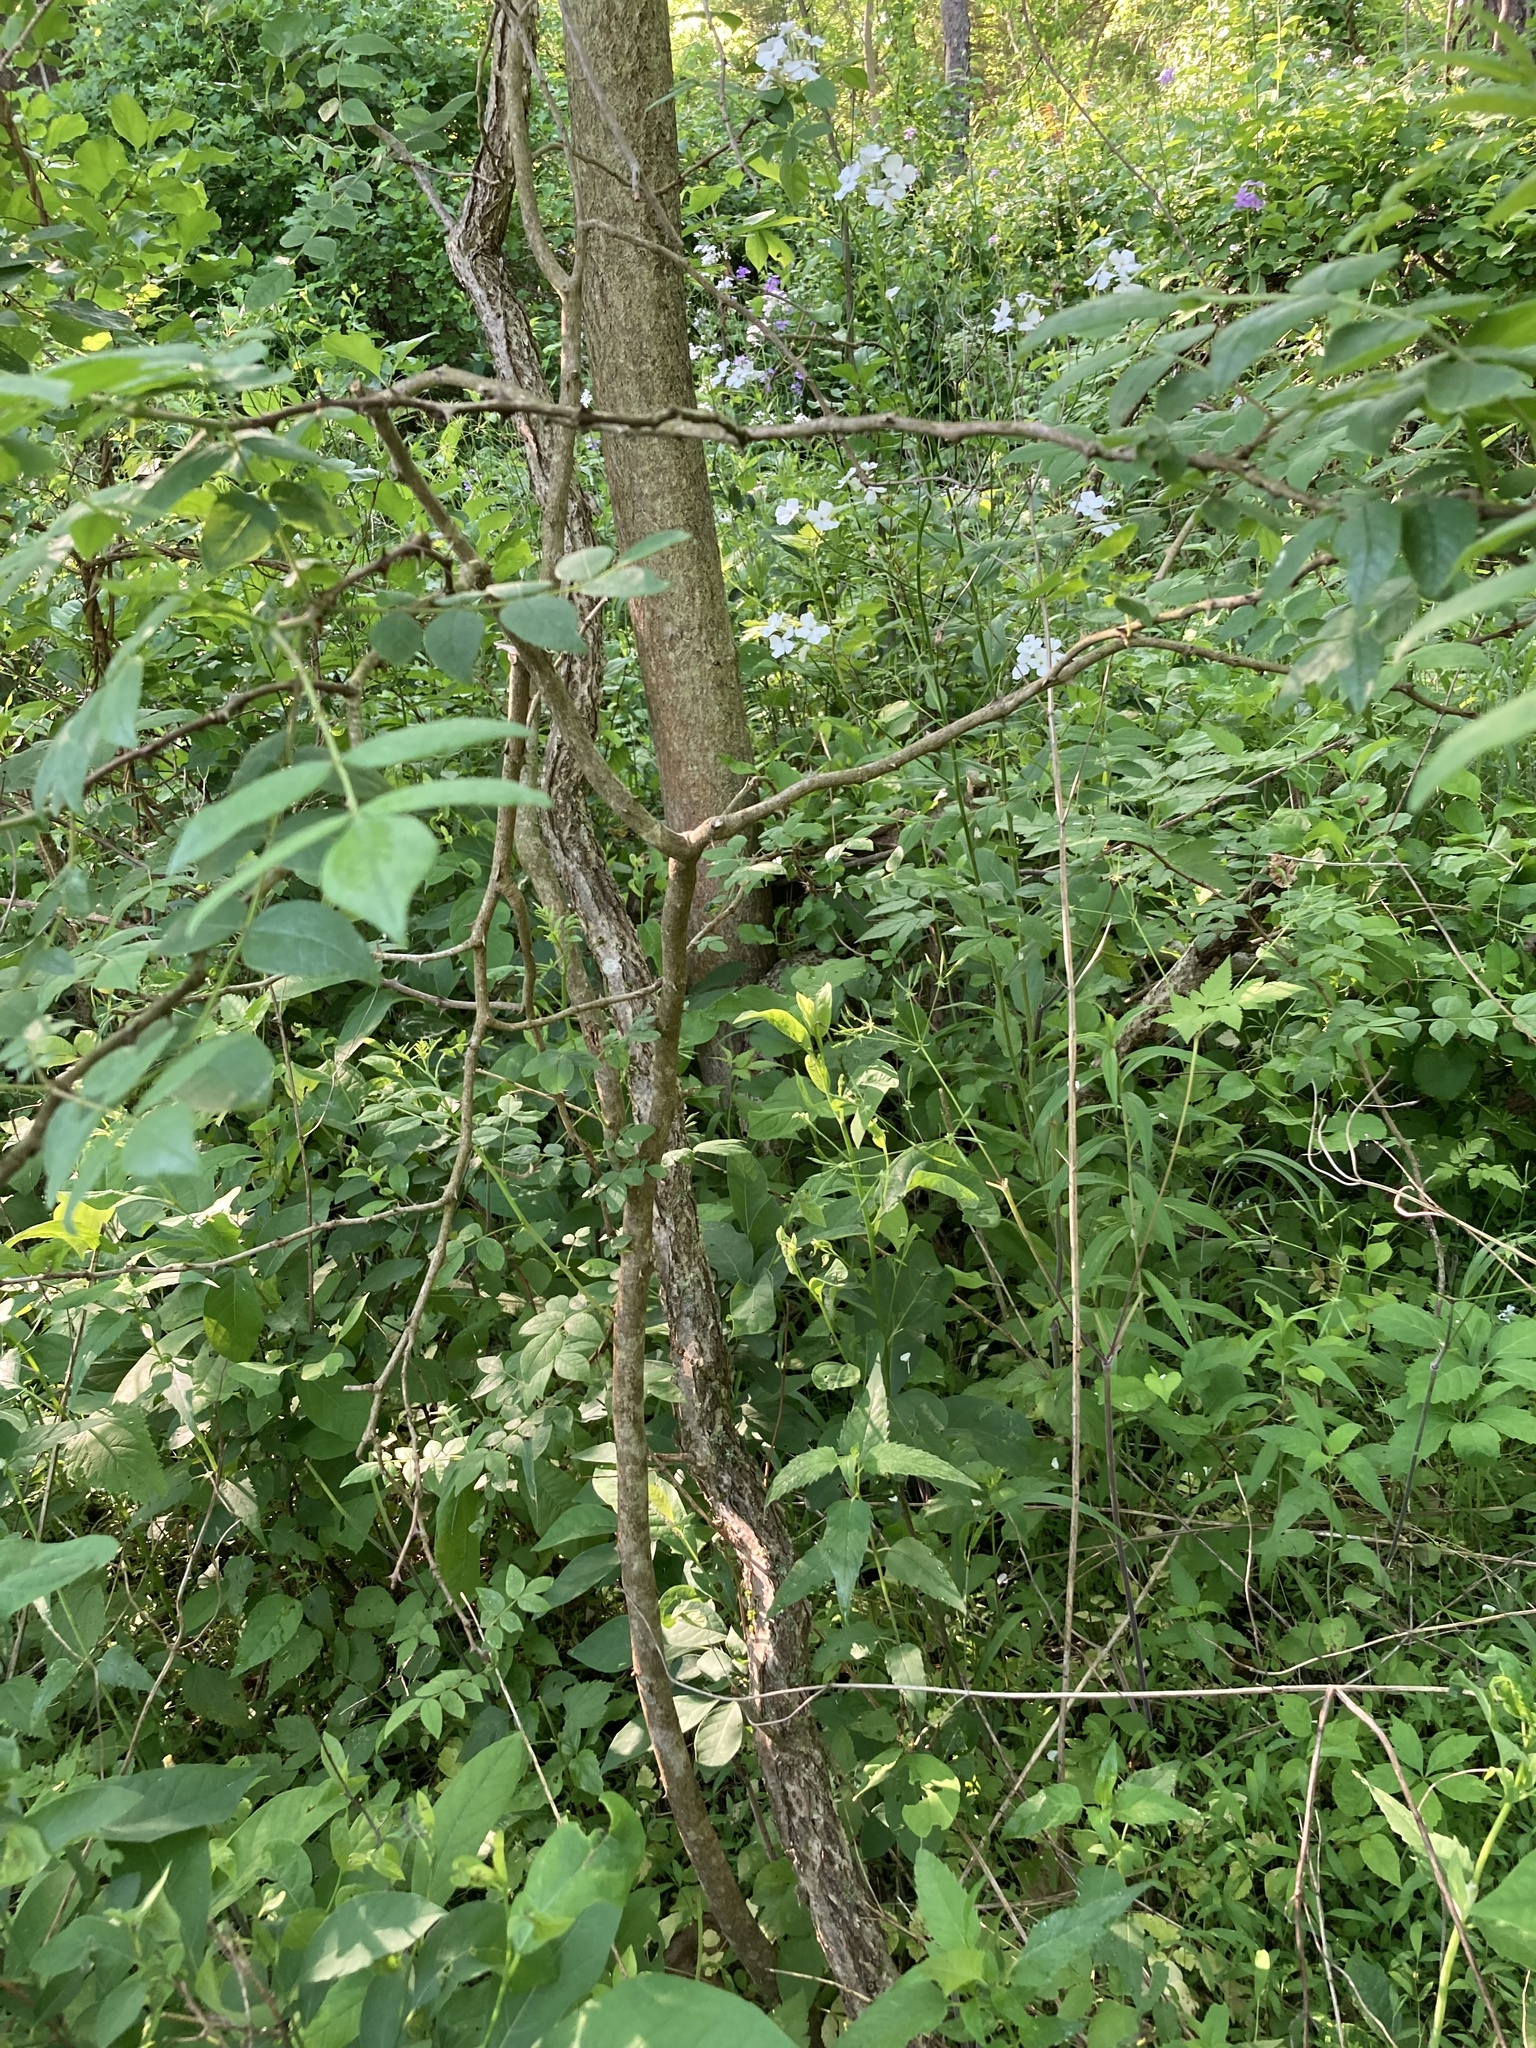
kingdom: Plantae
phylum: Tracheophyta
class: Magnoliopsida
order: Sapindales
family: Rutaceae
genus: Zanthoxylum
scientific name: Zanthoxylum americanum
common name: Northern prickly-ash
